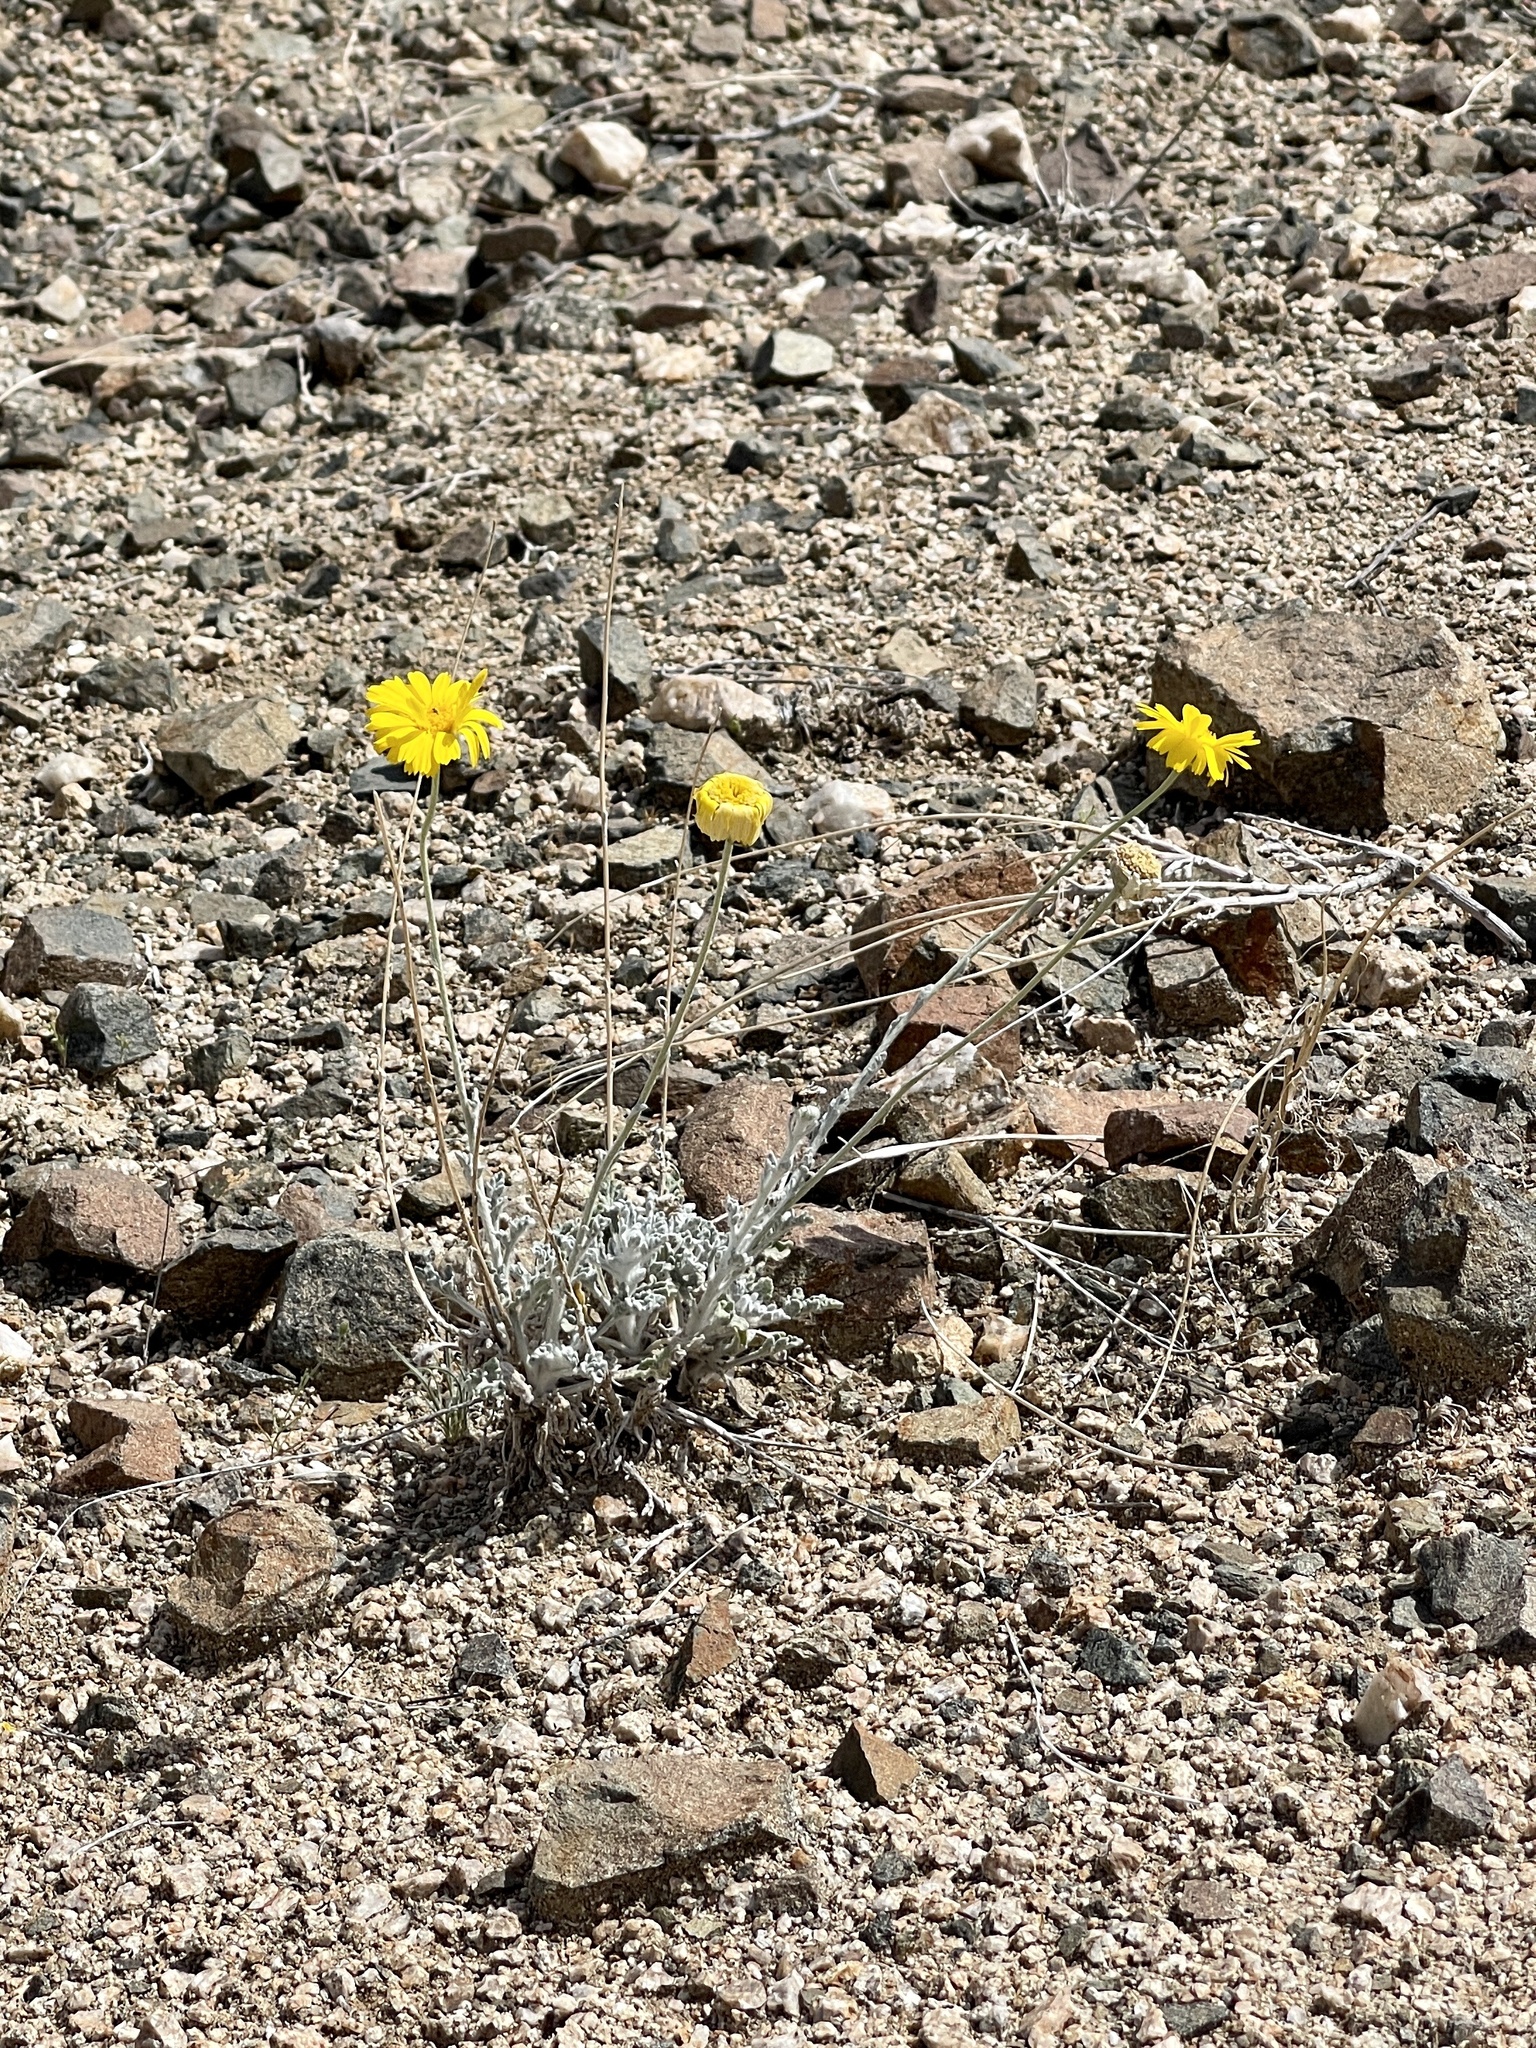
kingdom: Plantae
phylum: Tracheophyta
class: Magnoliopsida
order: Asterales
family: Asteraceae
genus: Baileya
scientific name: Baileya multiradiata
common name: Desert-marigold
